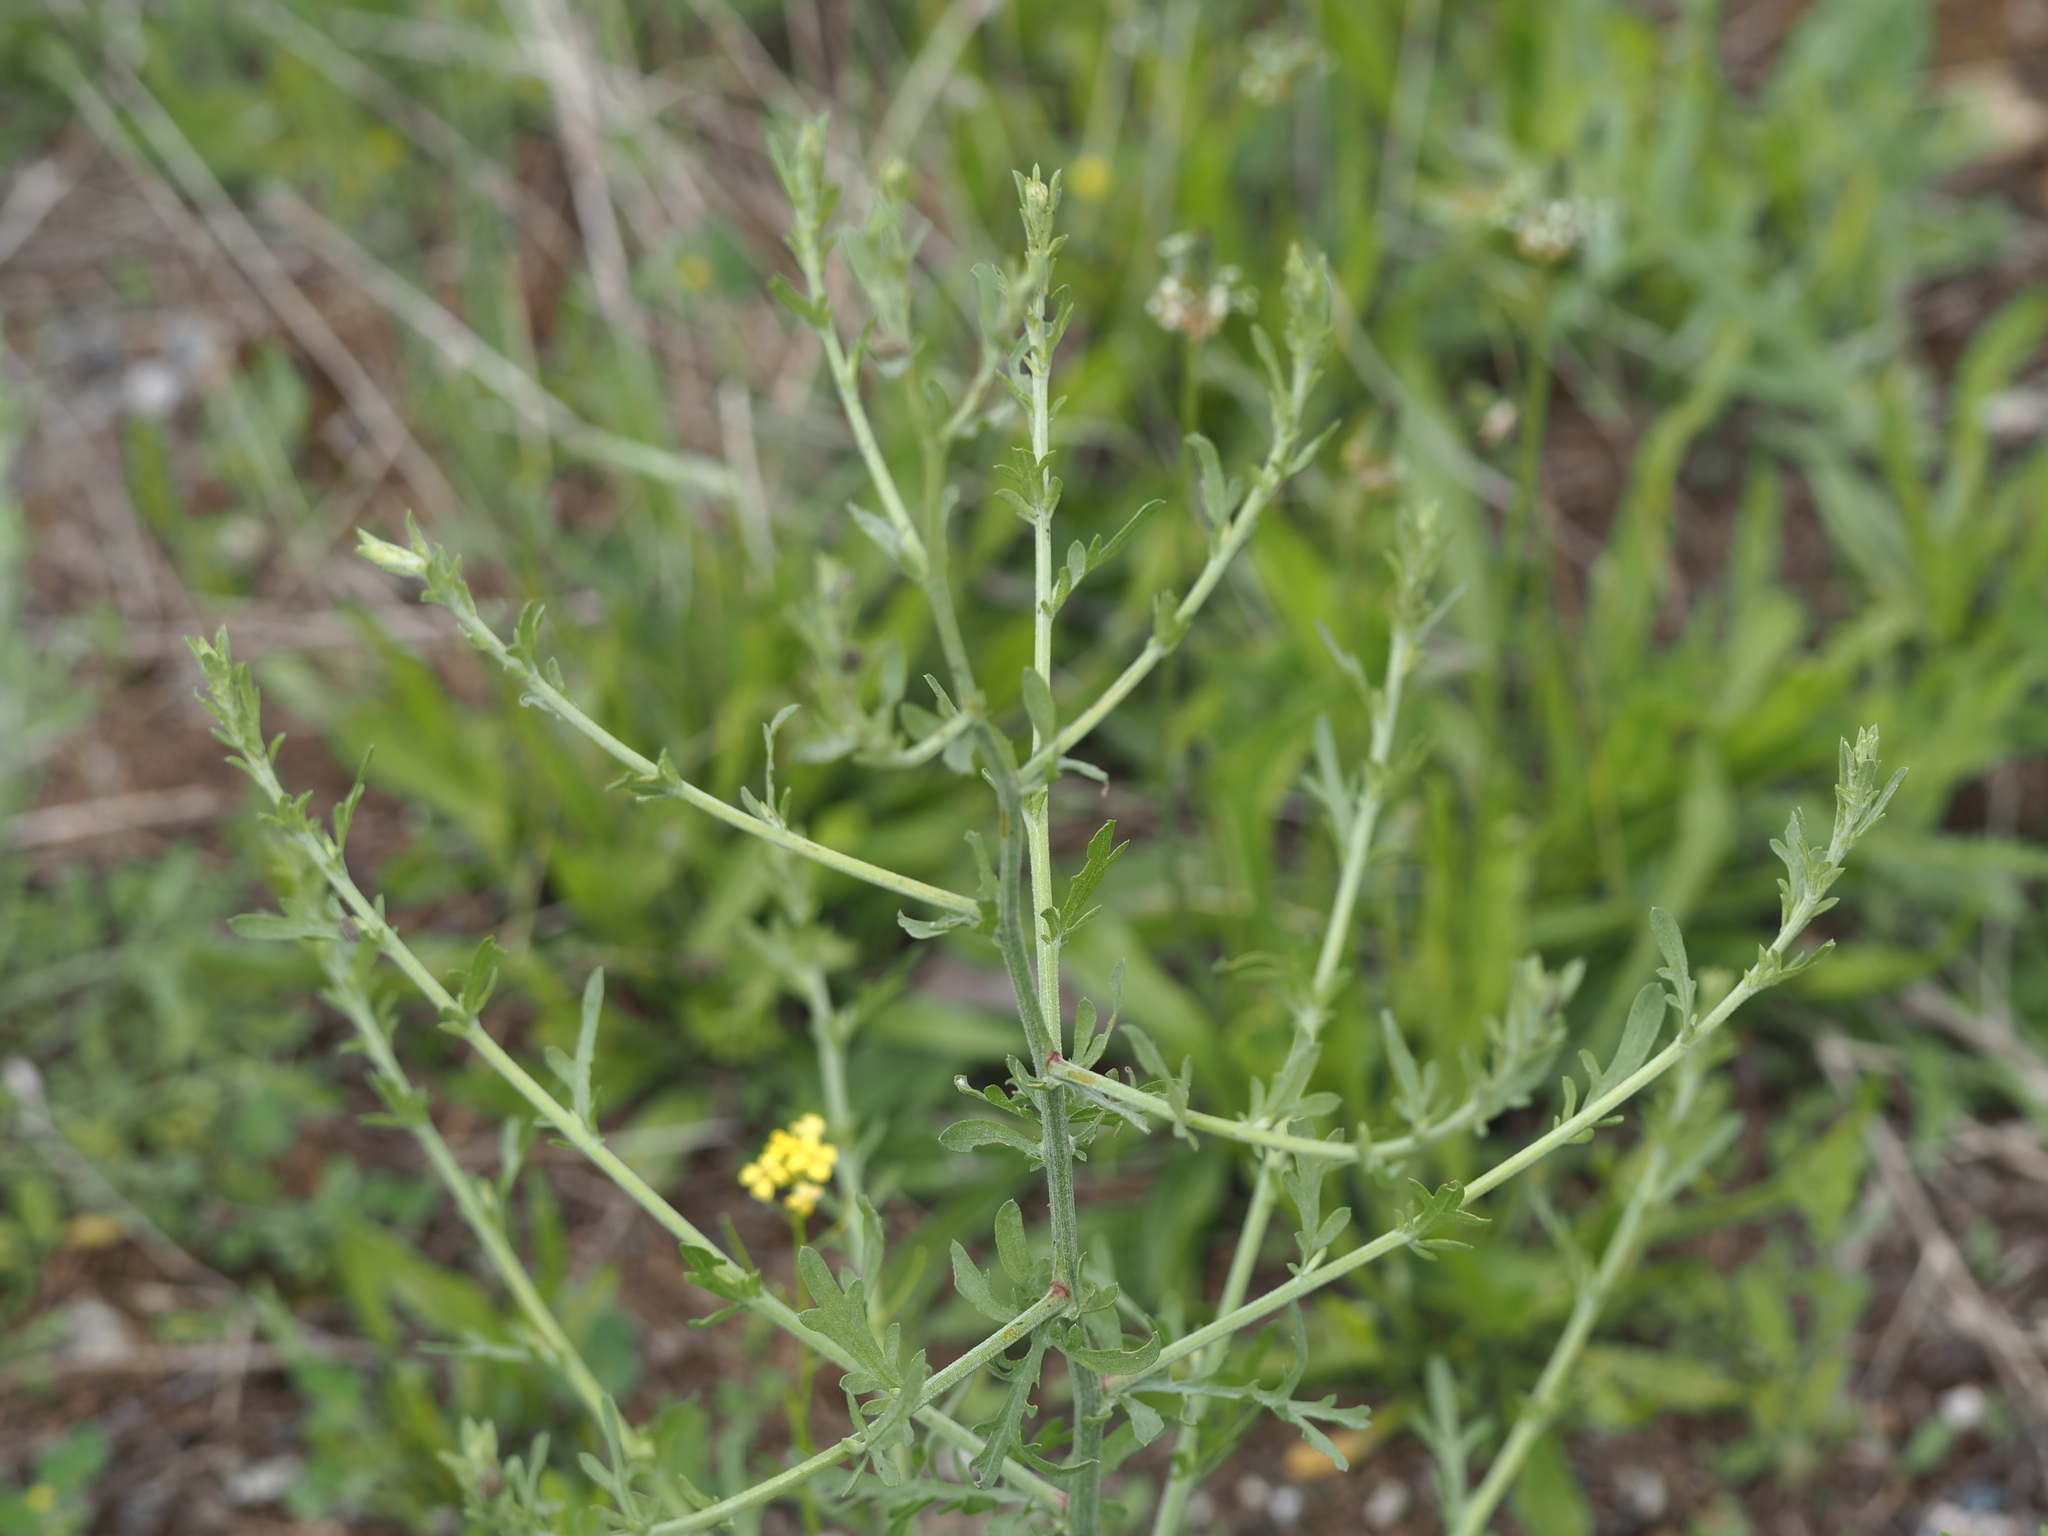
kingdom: Plantae
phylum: Tracheophyta
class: Magnoliopsida
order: Asterales
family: Asteraceae
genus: Centaurea
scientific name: Centaurea diffusa
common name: Diffuse knapweed
